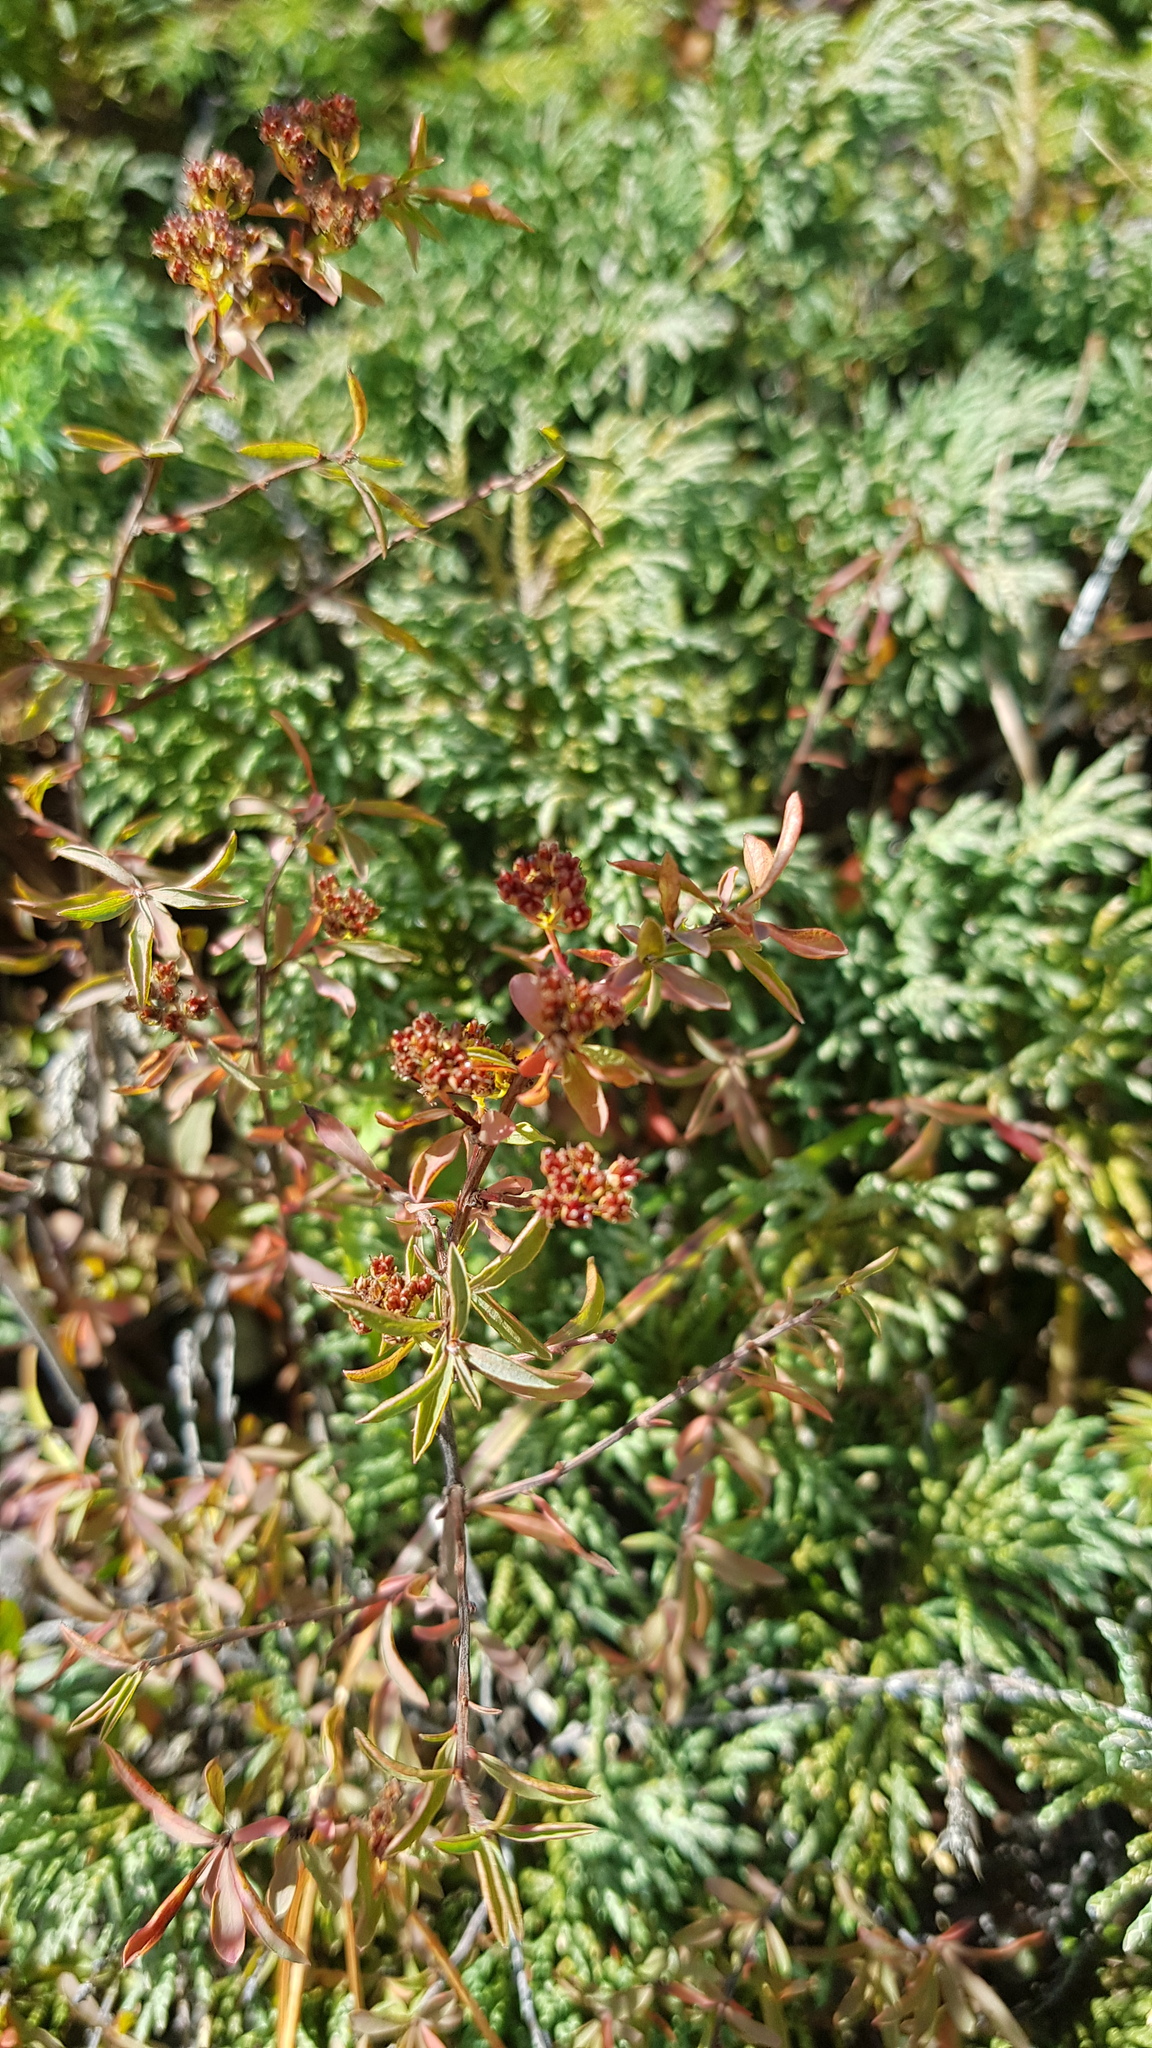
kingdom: Plantae
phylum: Tracheophyta
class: Magnoliopsida
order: Rosales
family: Rosaceae
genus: Spiraea
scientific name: Spiraea alpina
